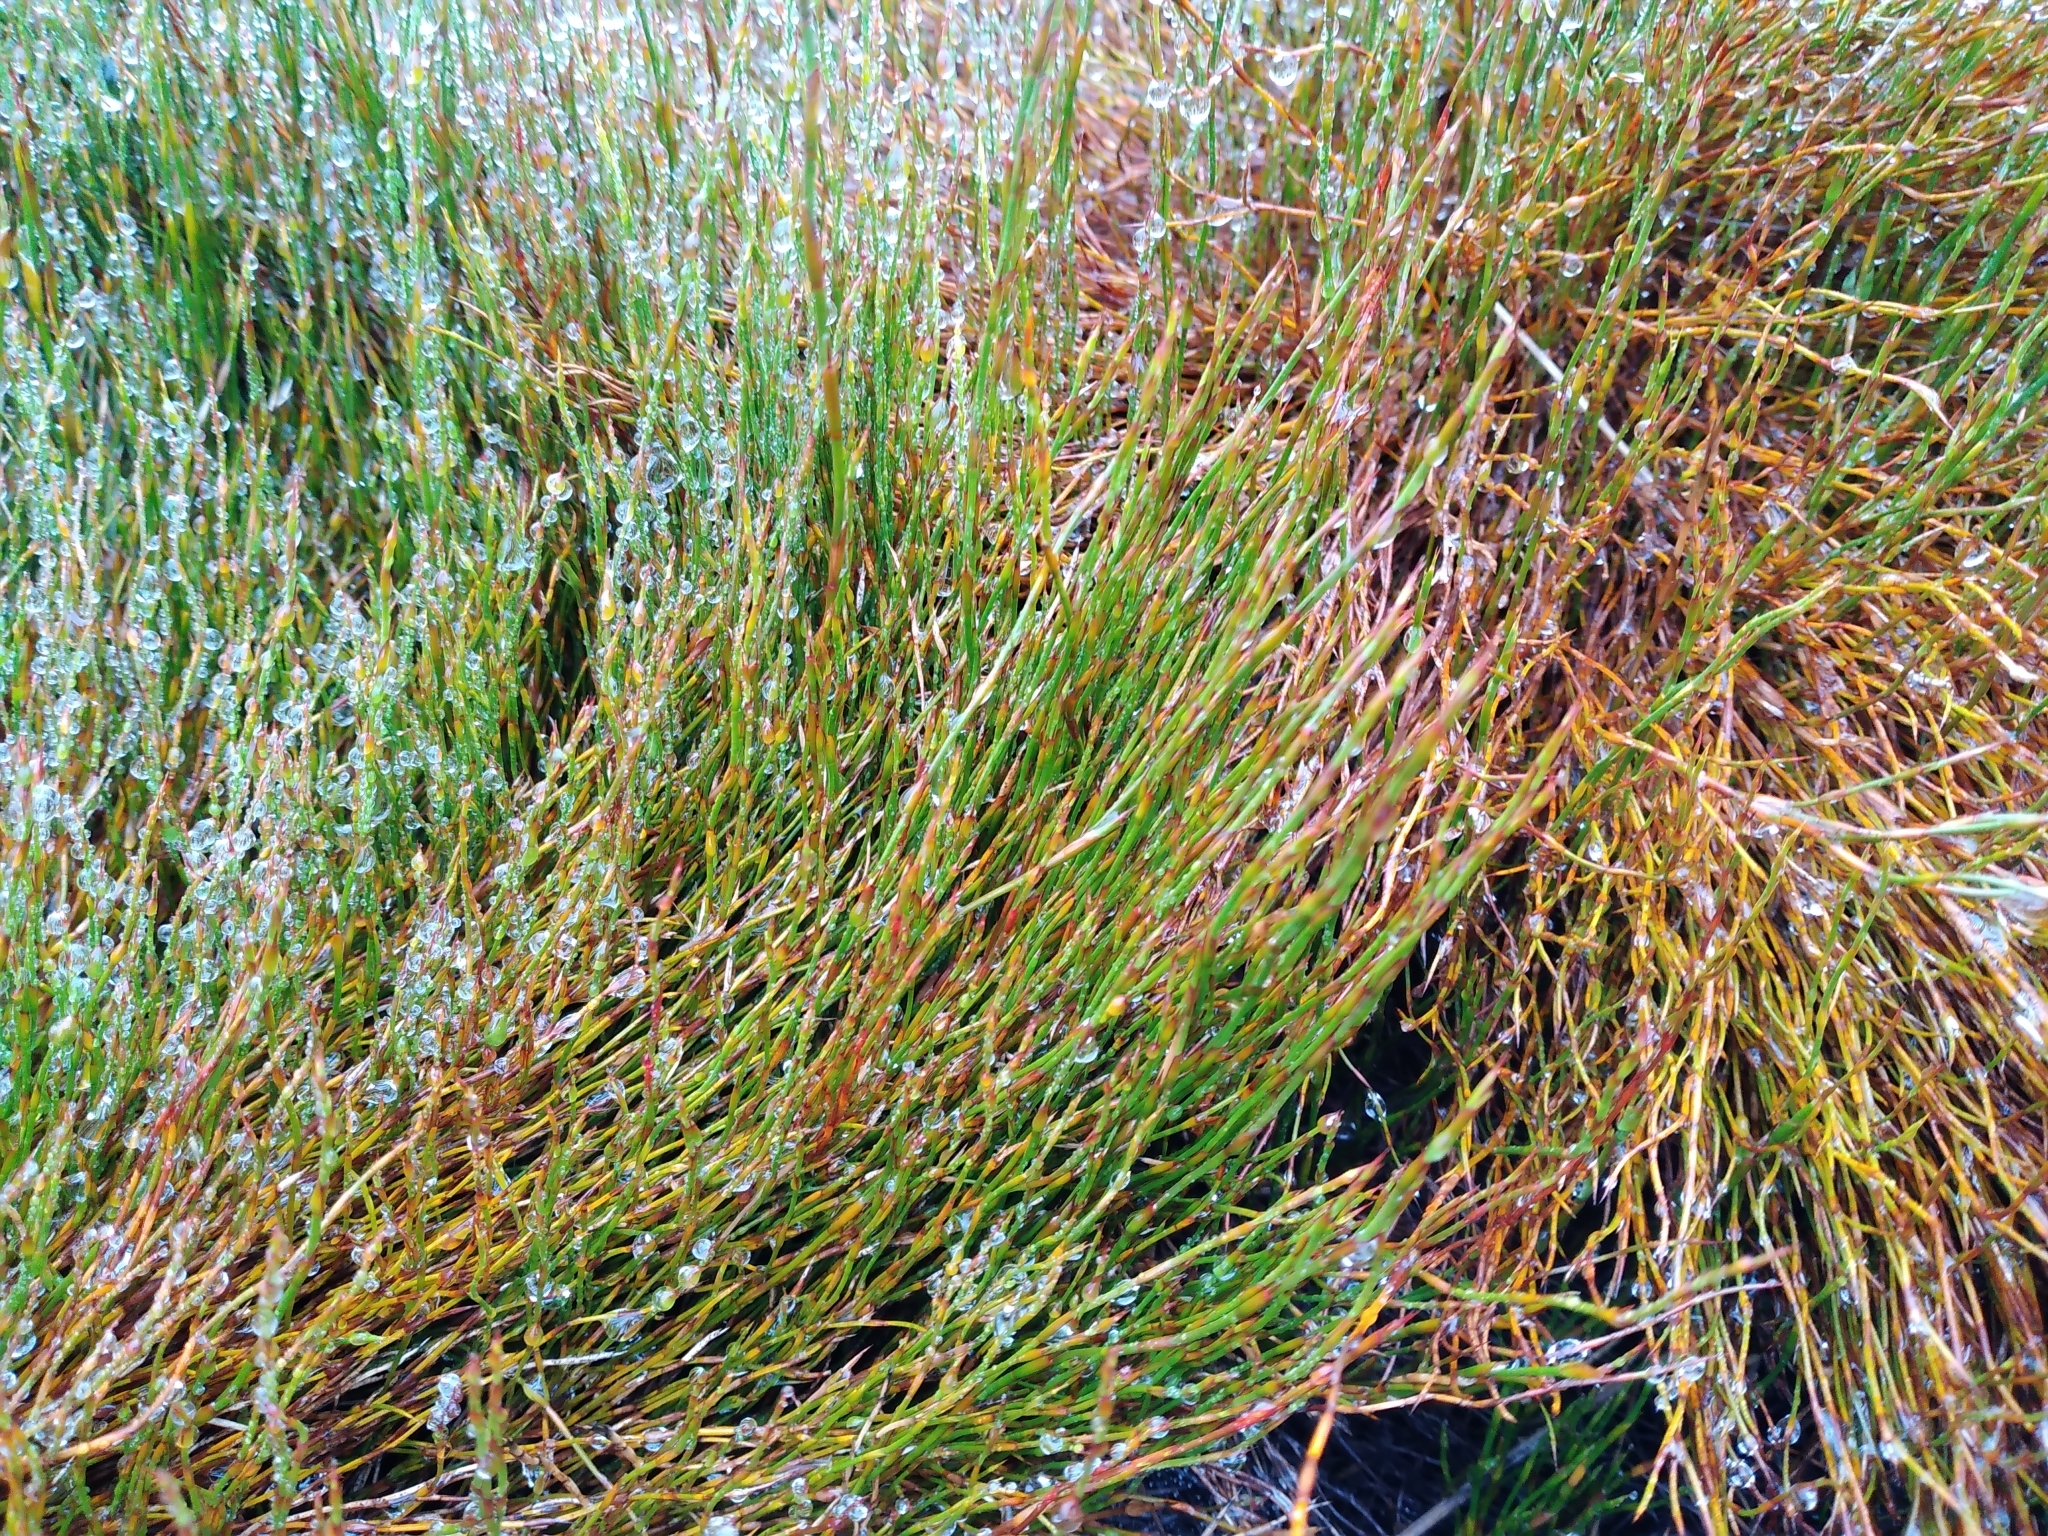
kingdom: Plantae
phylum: Tracheophyta
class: Liliopsida
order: Poales
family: Restionaceae
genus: Empodisma
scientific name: Empodisma minus
